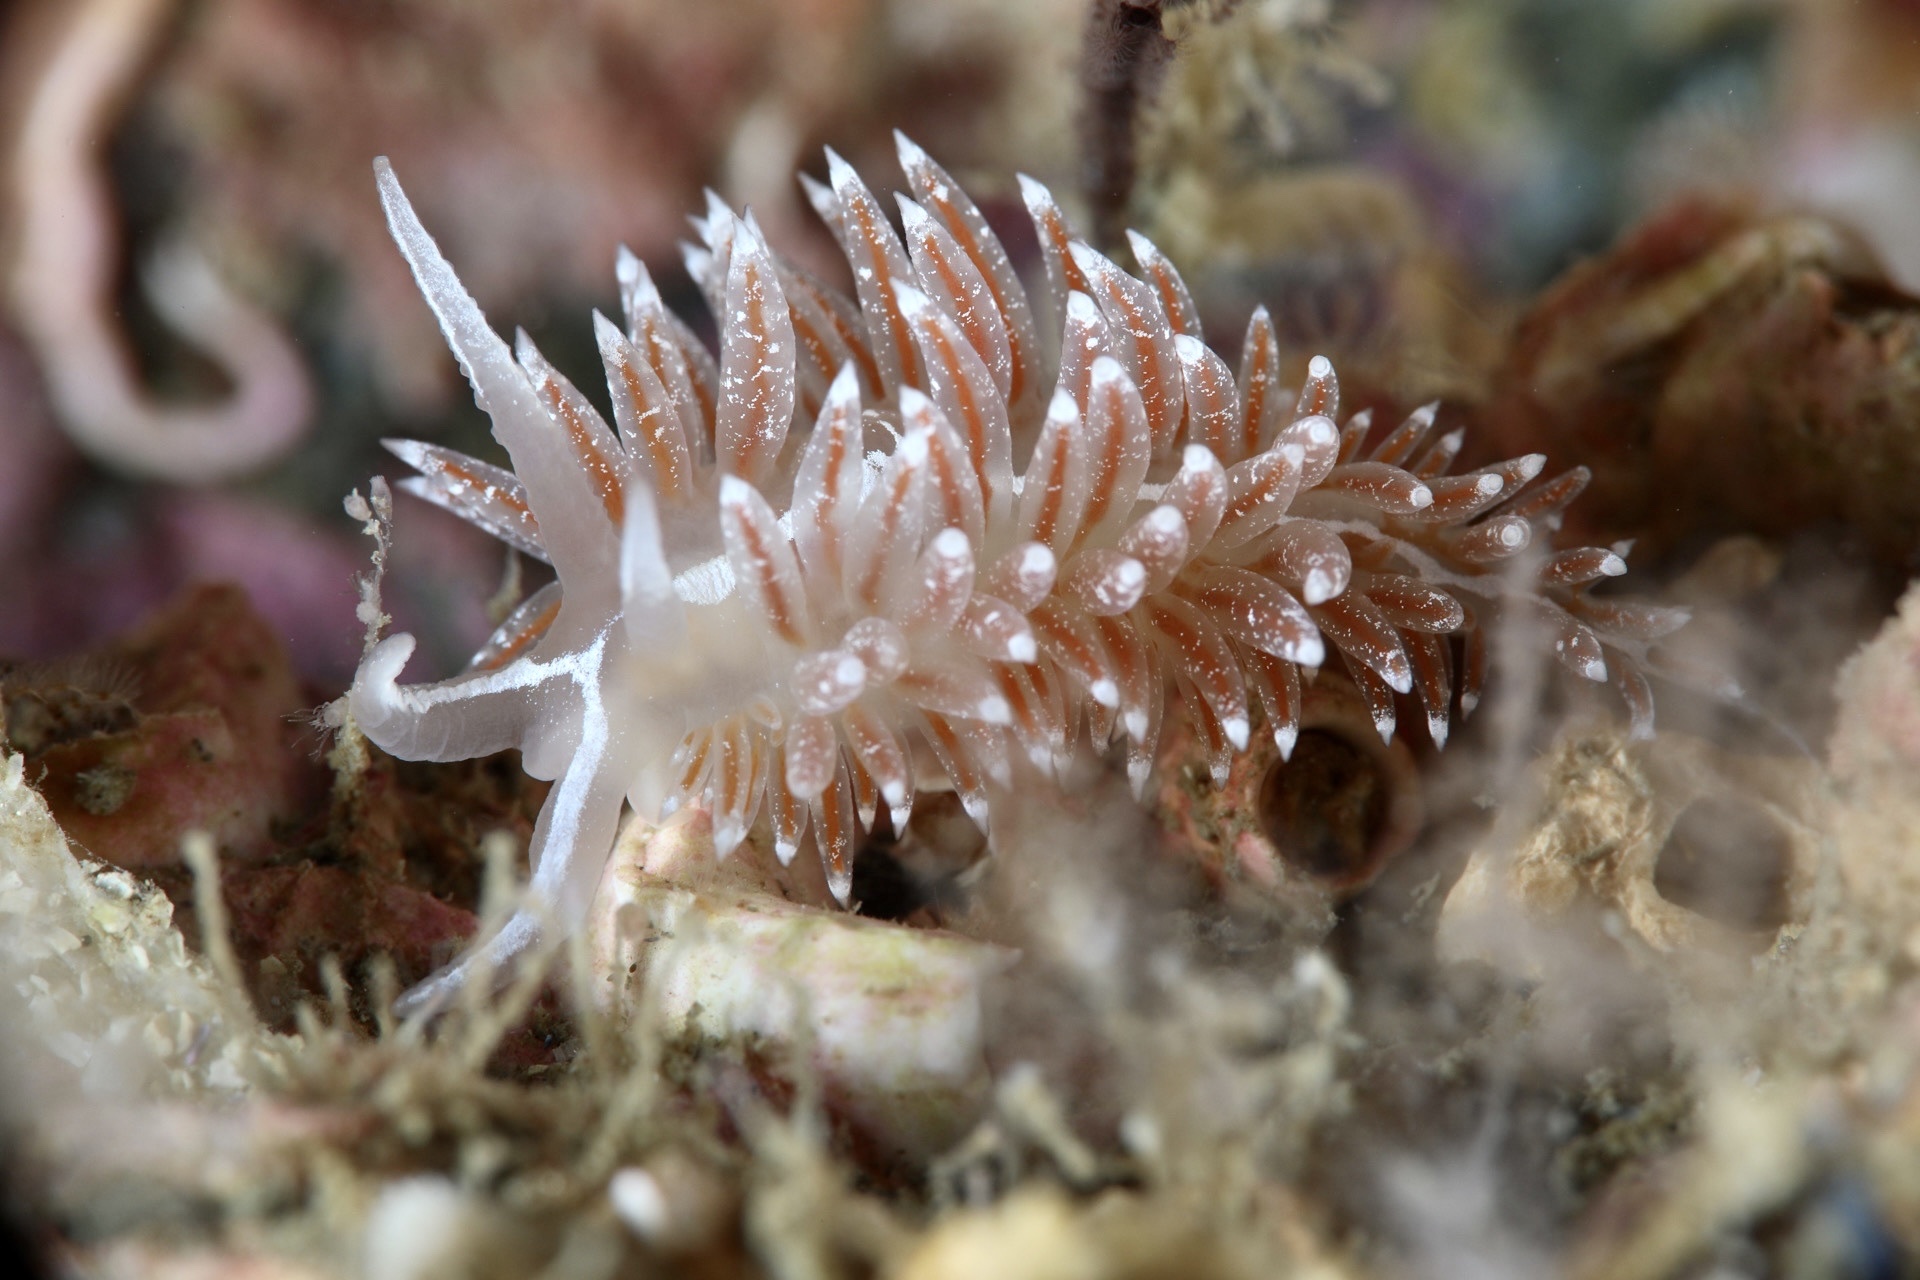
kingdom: Animalia
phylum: Mollusca
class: Gastropoda
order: Nudibranchia
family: Coryphellidae
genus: Coryphella
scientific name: Coryphella orjani
